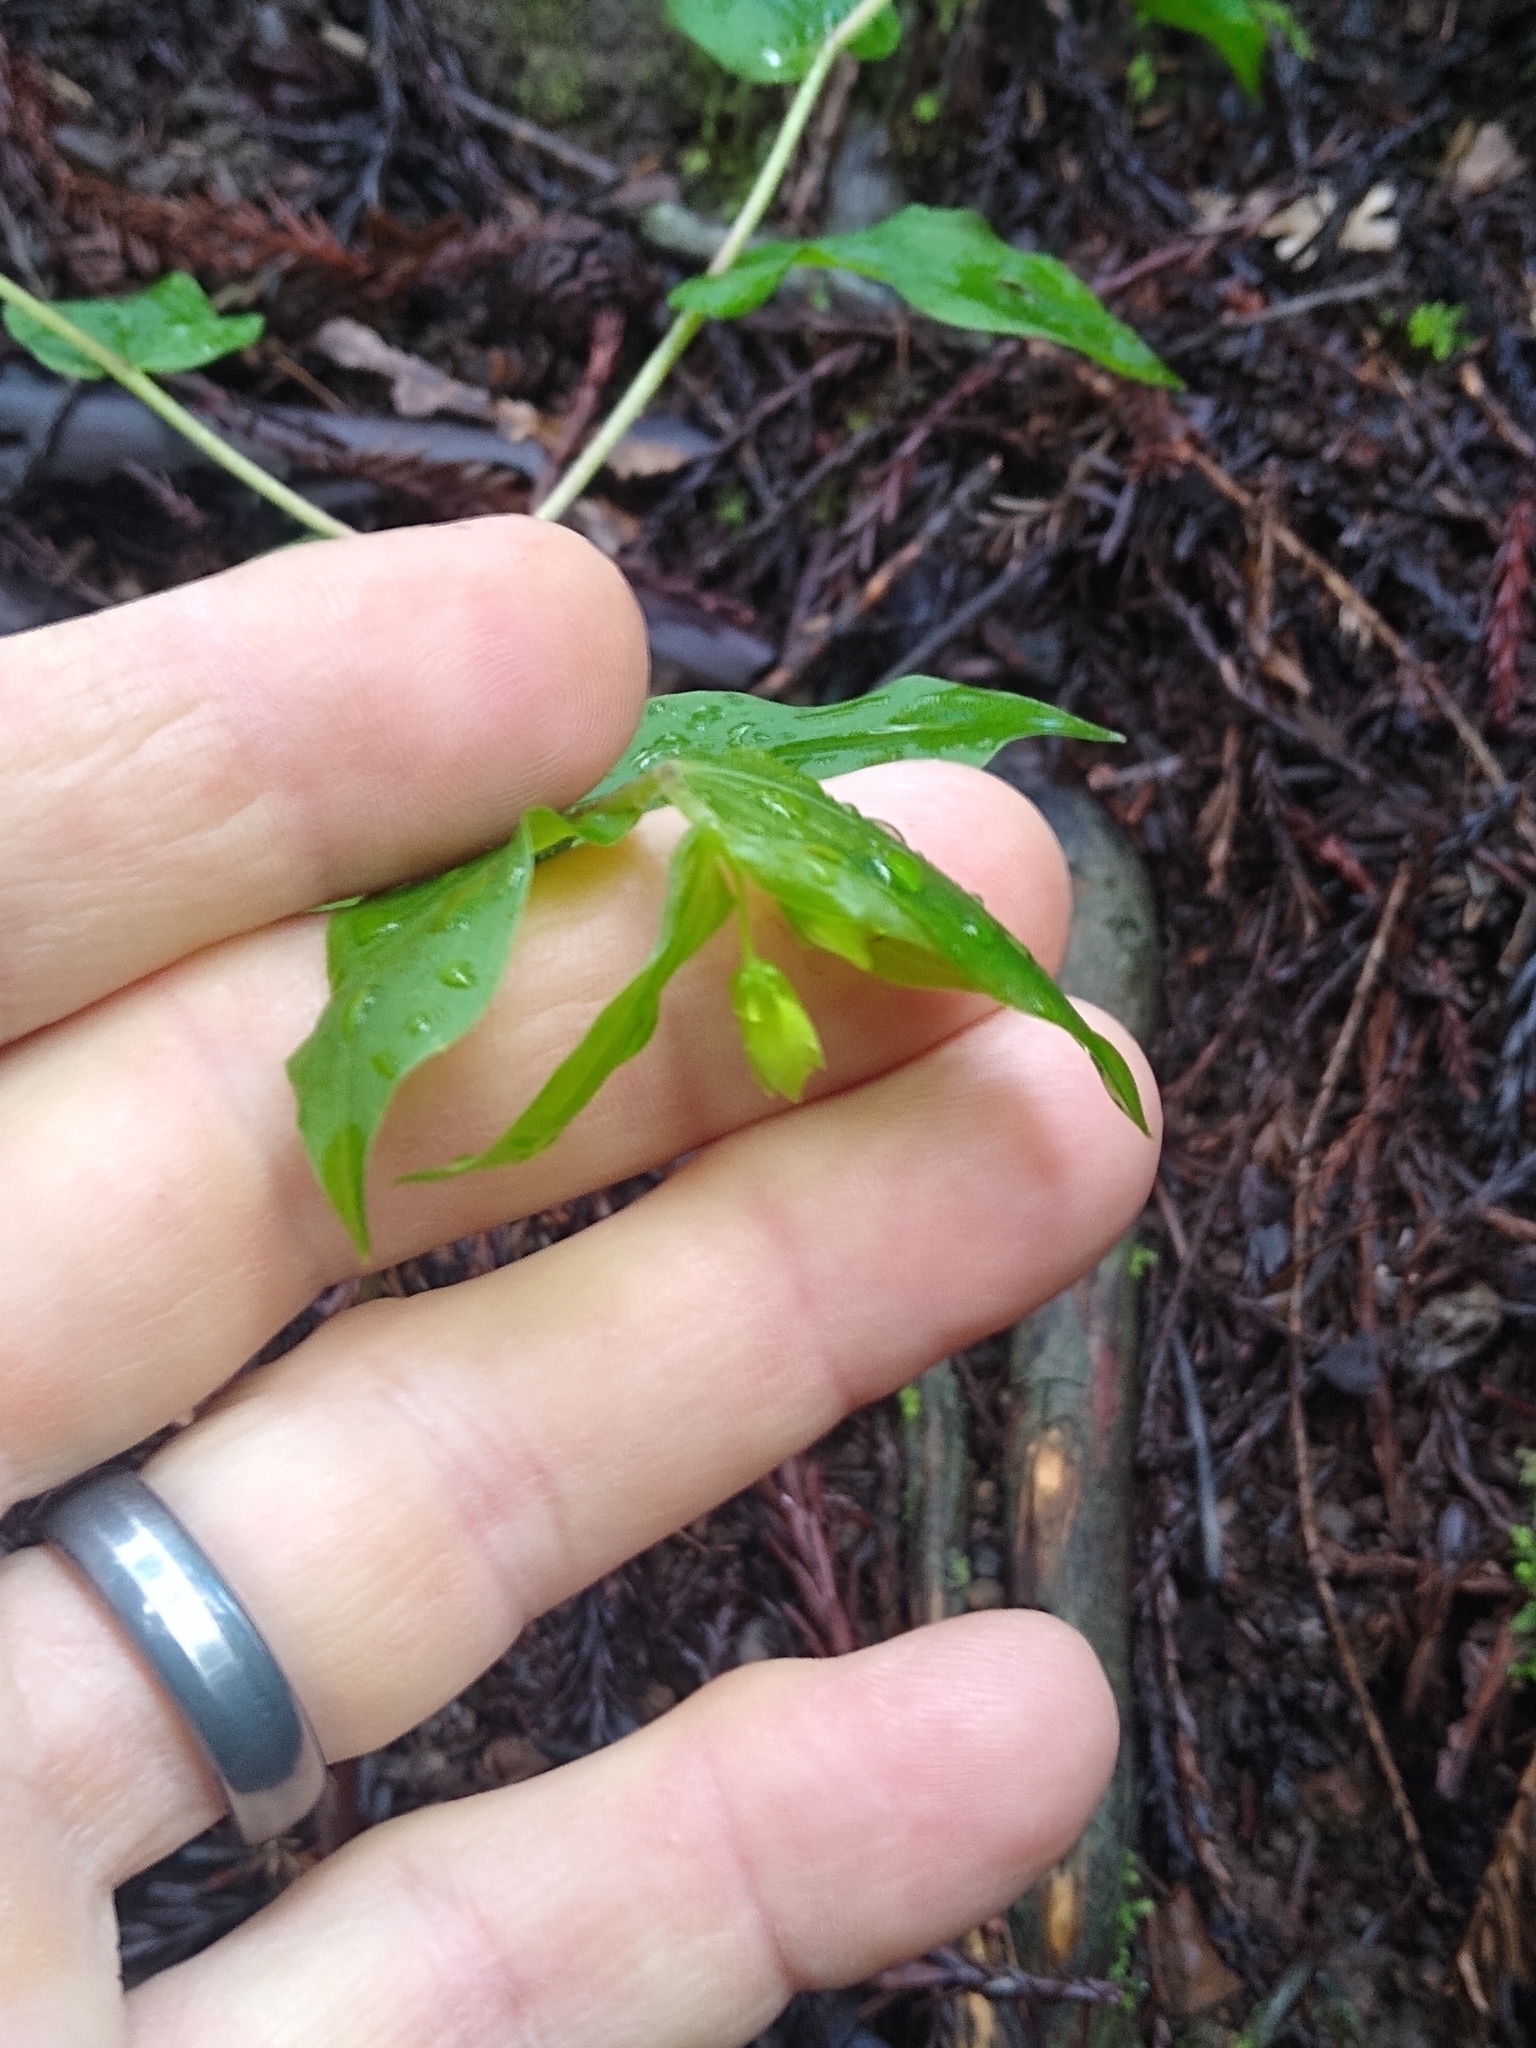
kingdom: Plantae
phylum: Tracheophyta
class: Liliopsida
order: Liliales
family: Liliaceae
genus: Prosartes
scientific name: Prosartes hookeri
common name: Fairy-bells
